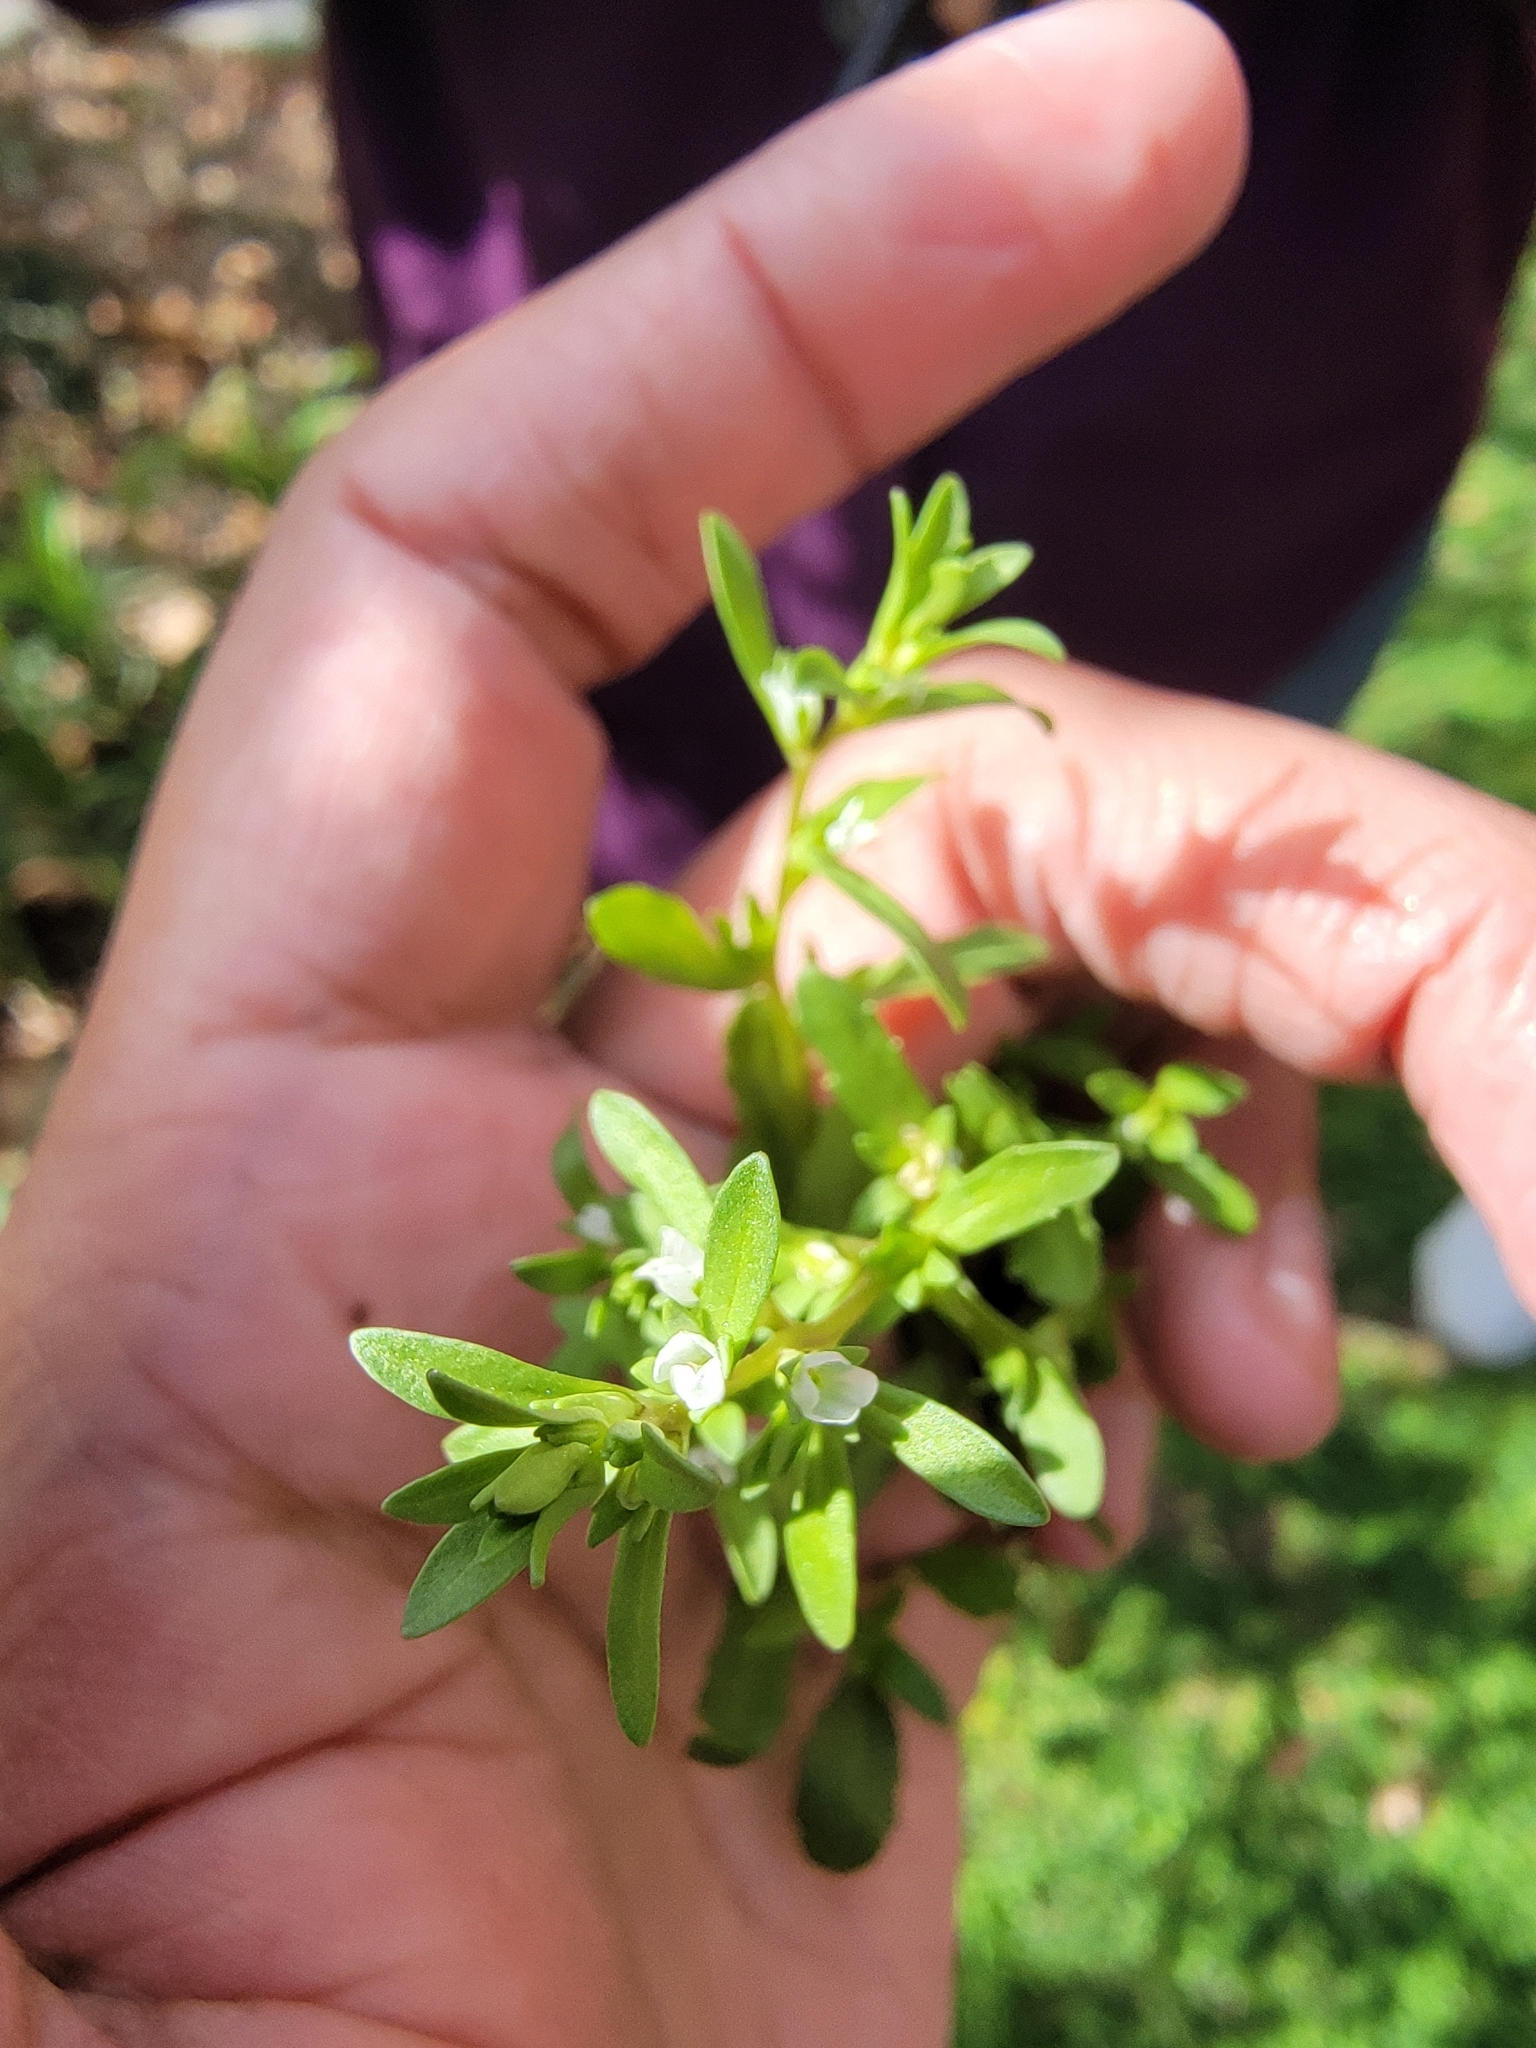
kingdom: Plantae
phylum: Tracheophyta
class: Magnoliopsida
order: Lamiales
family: Plantaginaceae
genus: Veronica
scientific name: Veronica peregrina
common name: Neckweed
